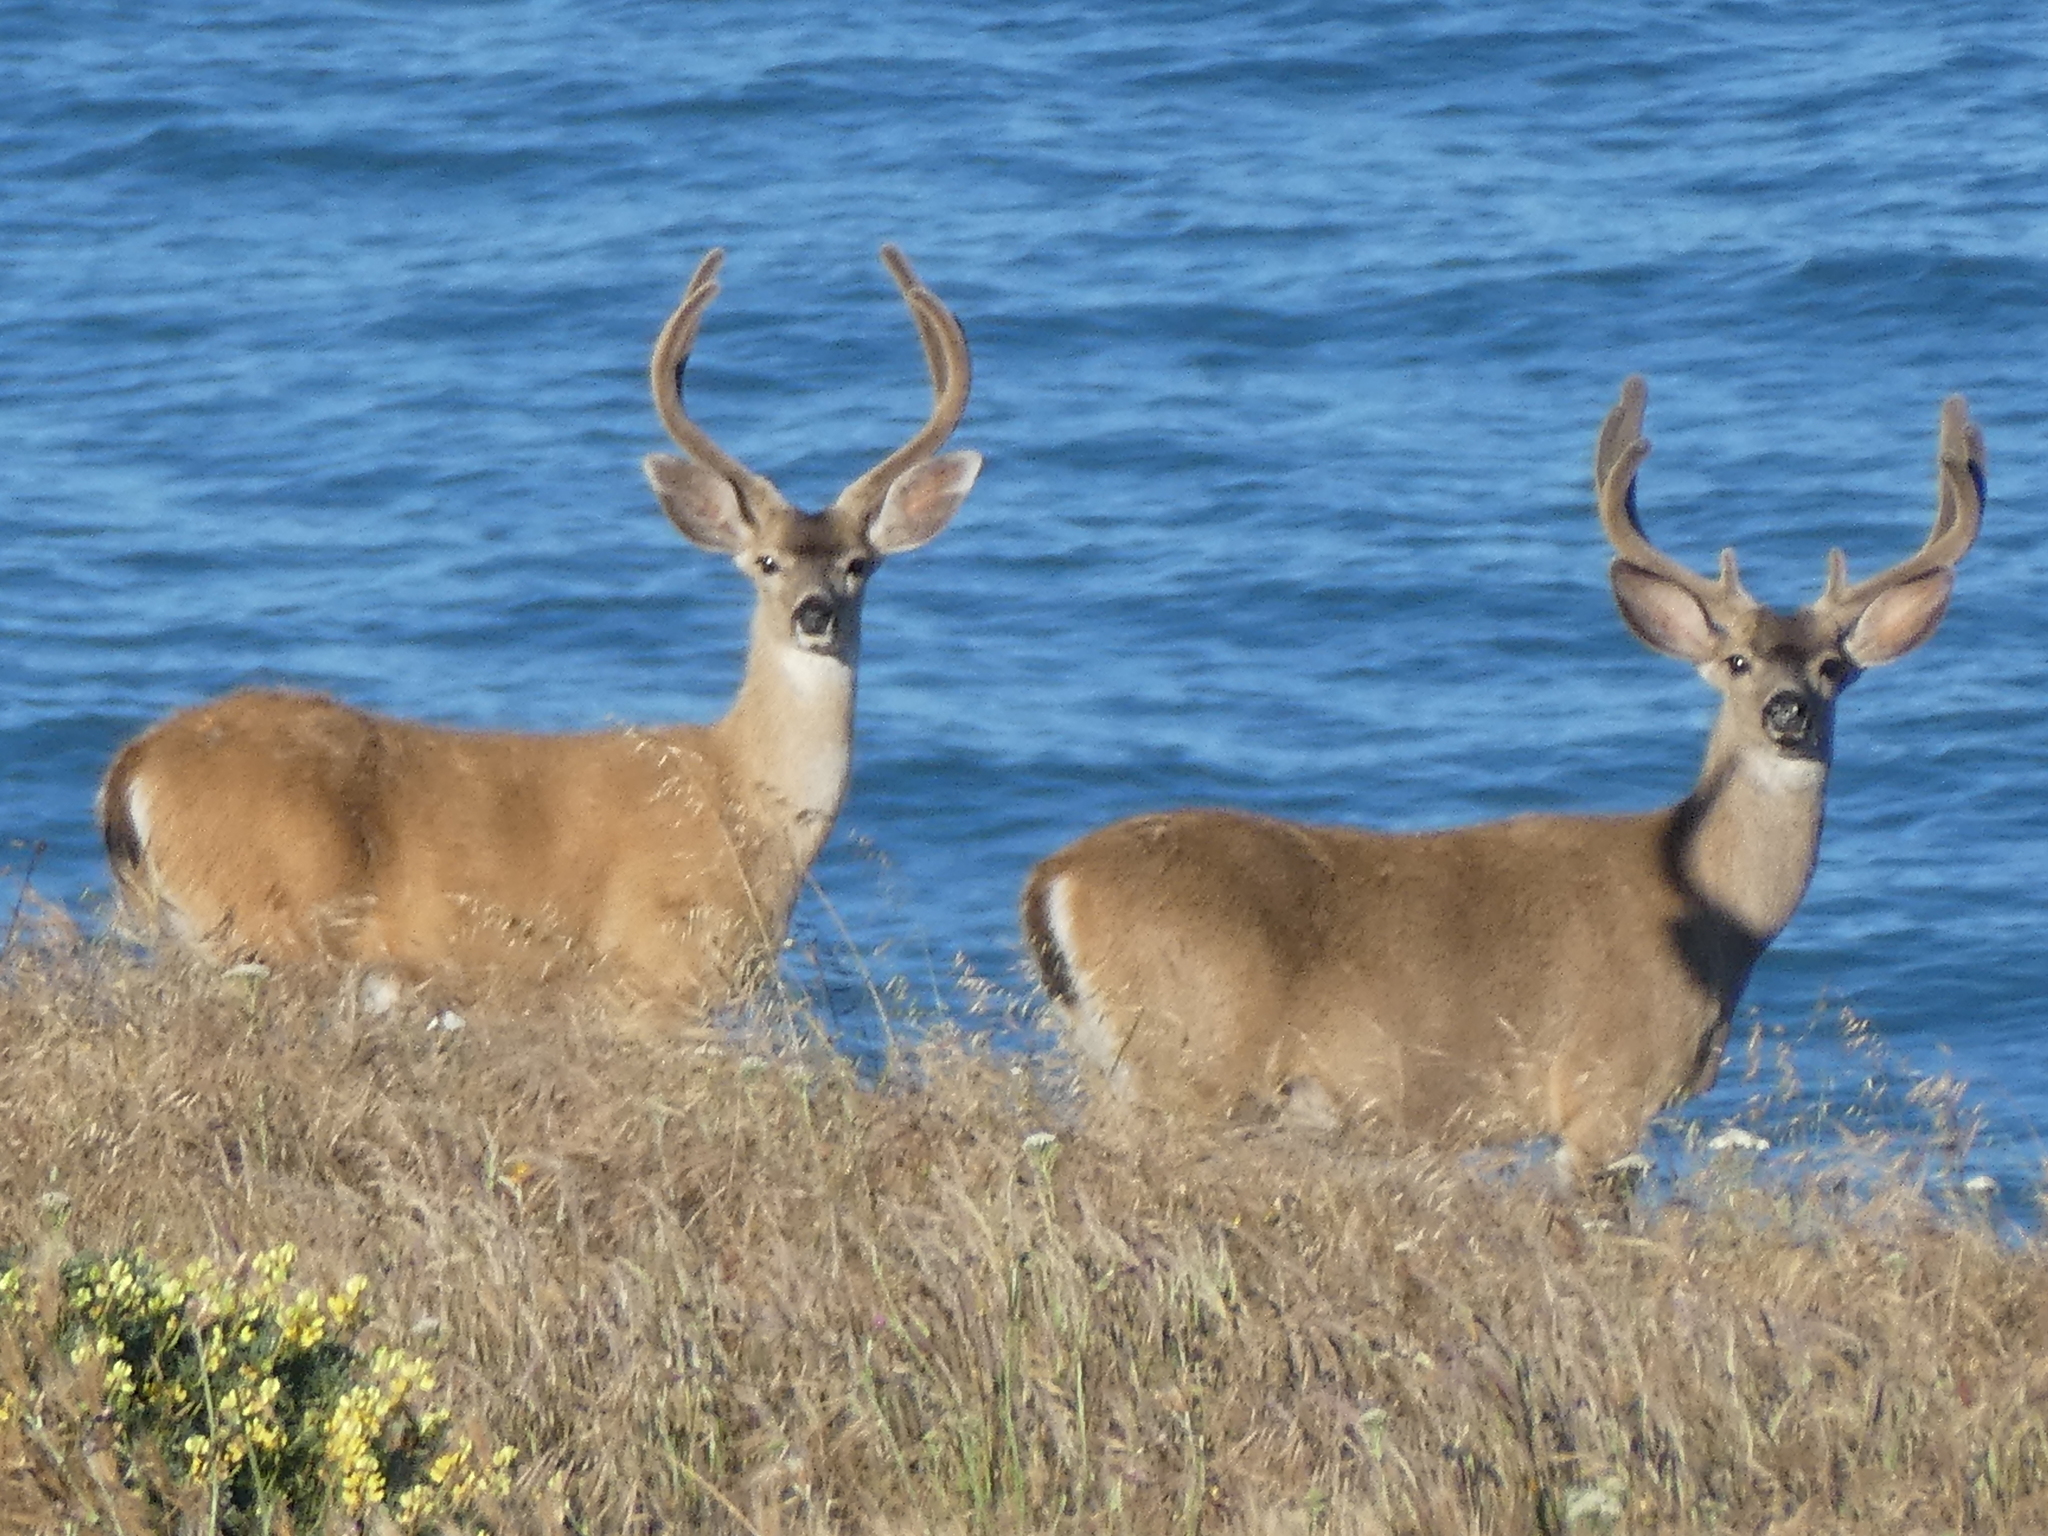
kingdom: Animalia
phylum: Chordata
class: Mammalia
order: Artiodactyla
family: Cervidae
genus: Odocoileus
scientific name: Odocoileus hemionus
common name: Mule deer
